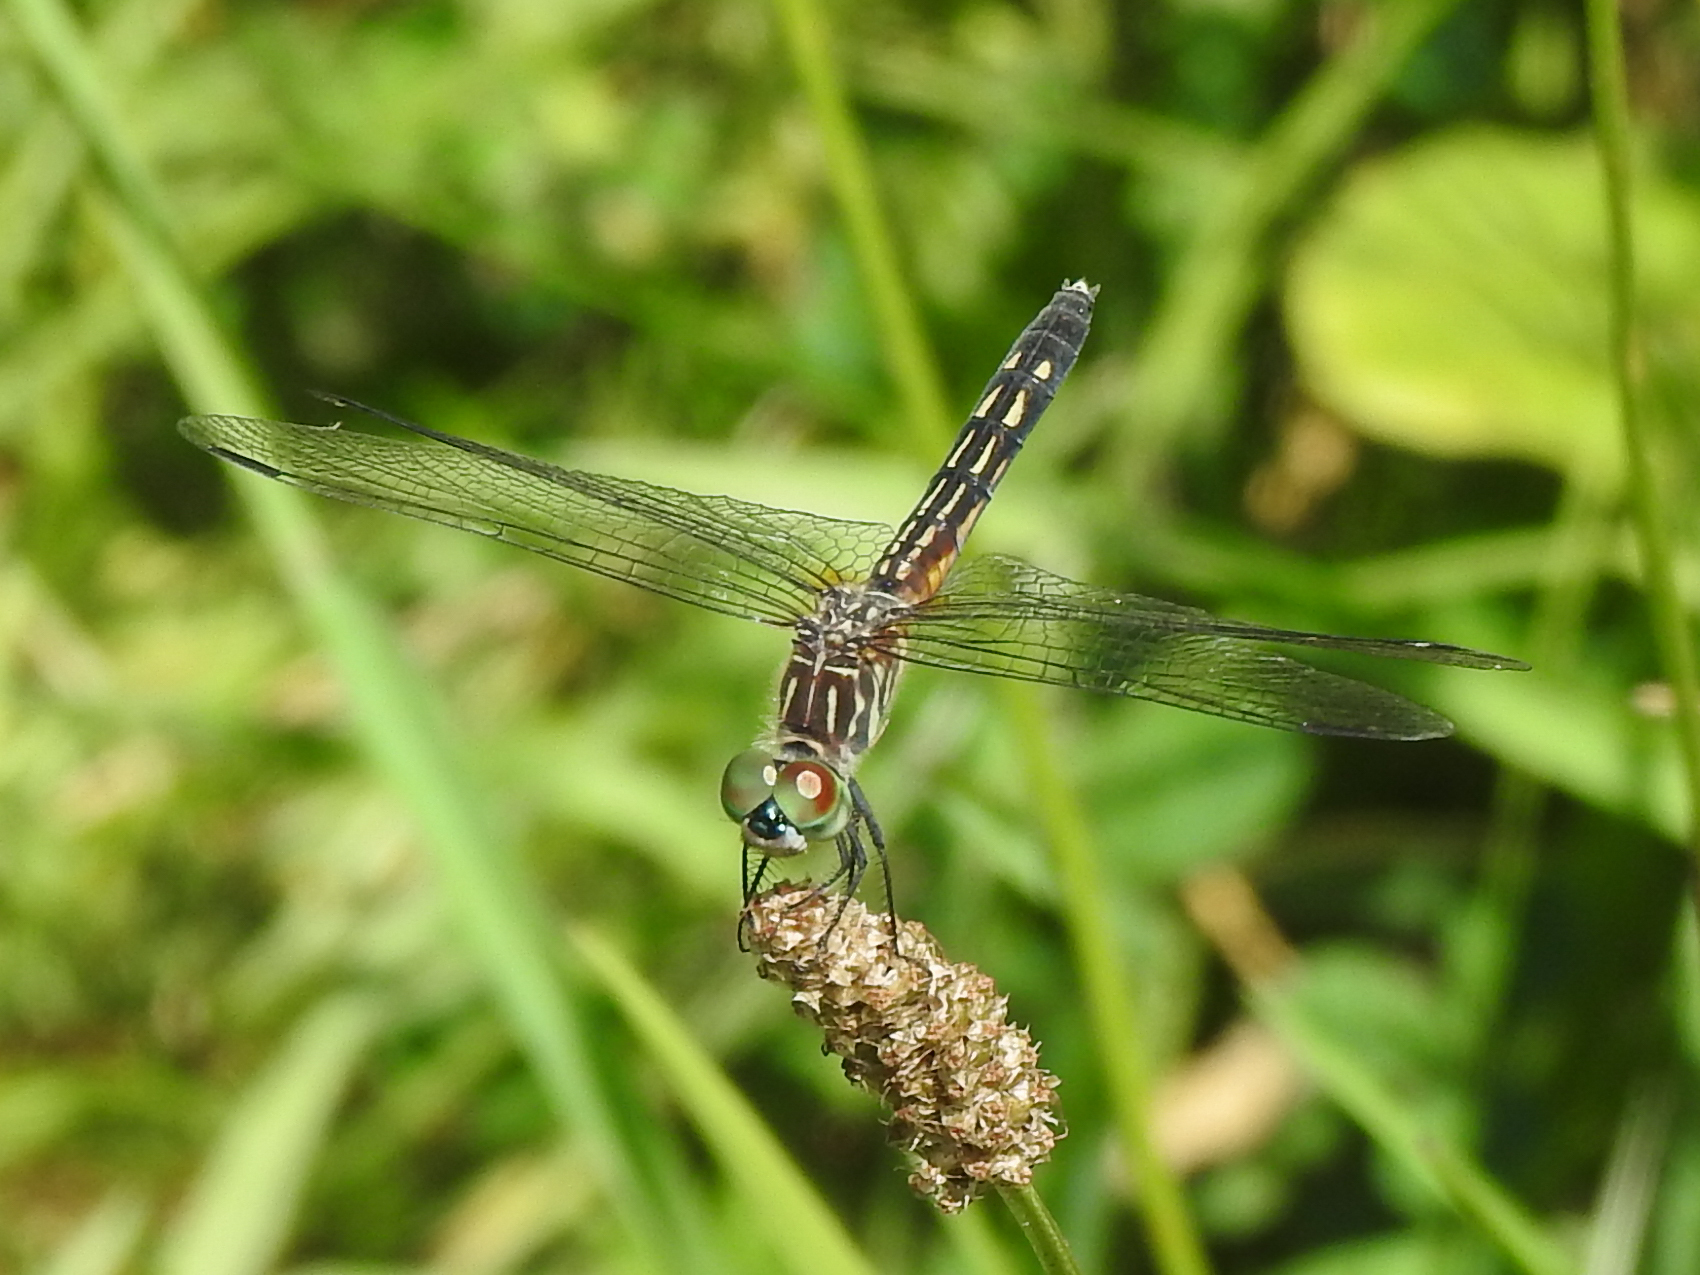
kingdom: Animalia
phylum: Arthropoda
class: Insecta
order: Odonata
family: Libellulidae
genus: Pachydiplax
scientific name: Pachydiplax longipennis
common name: Blue dasher
